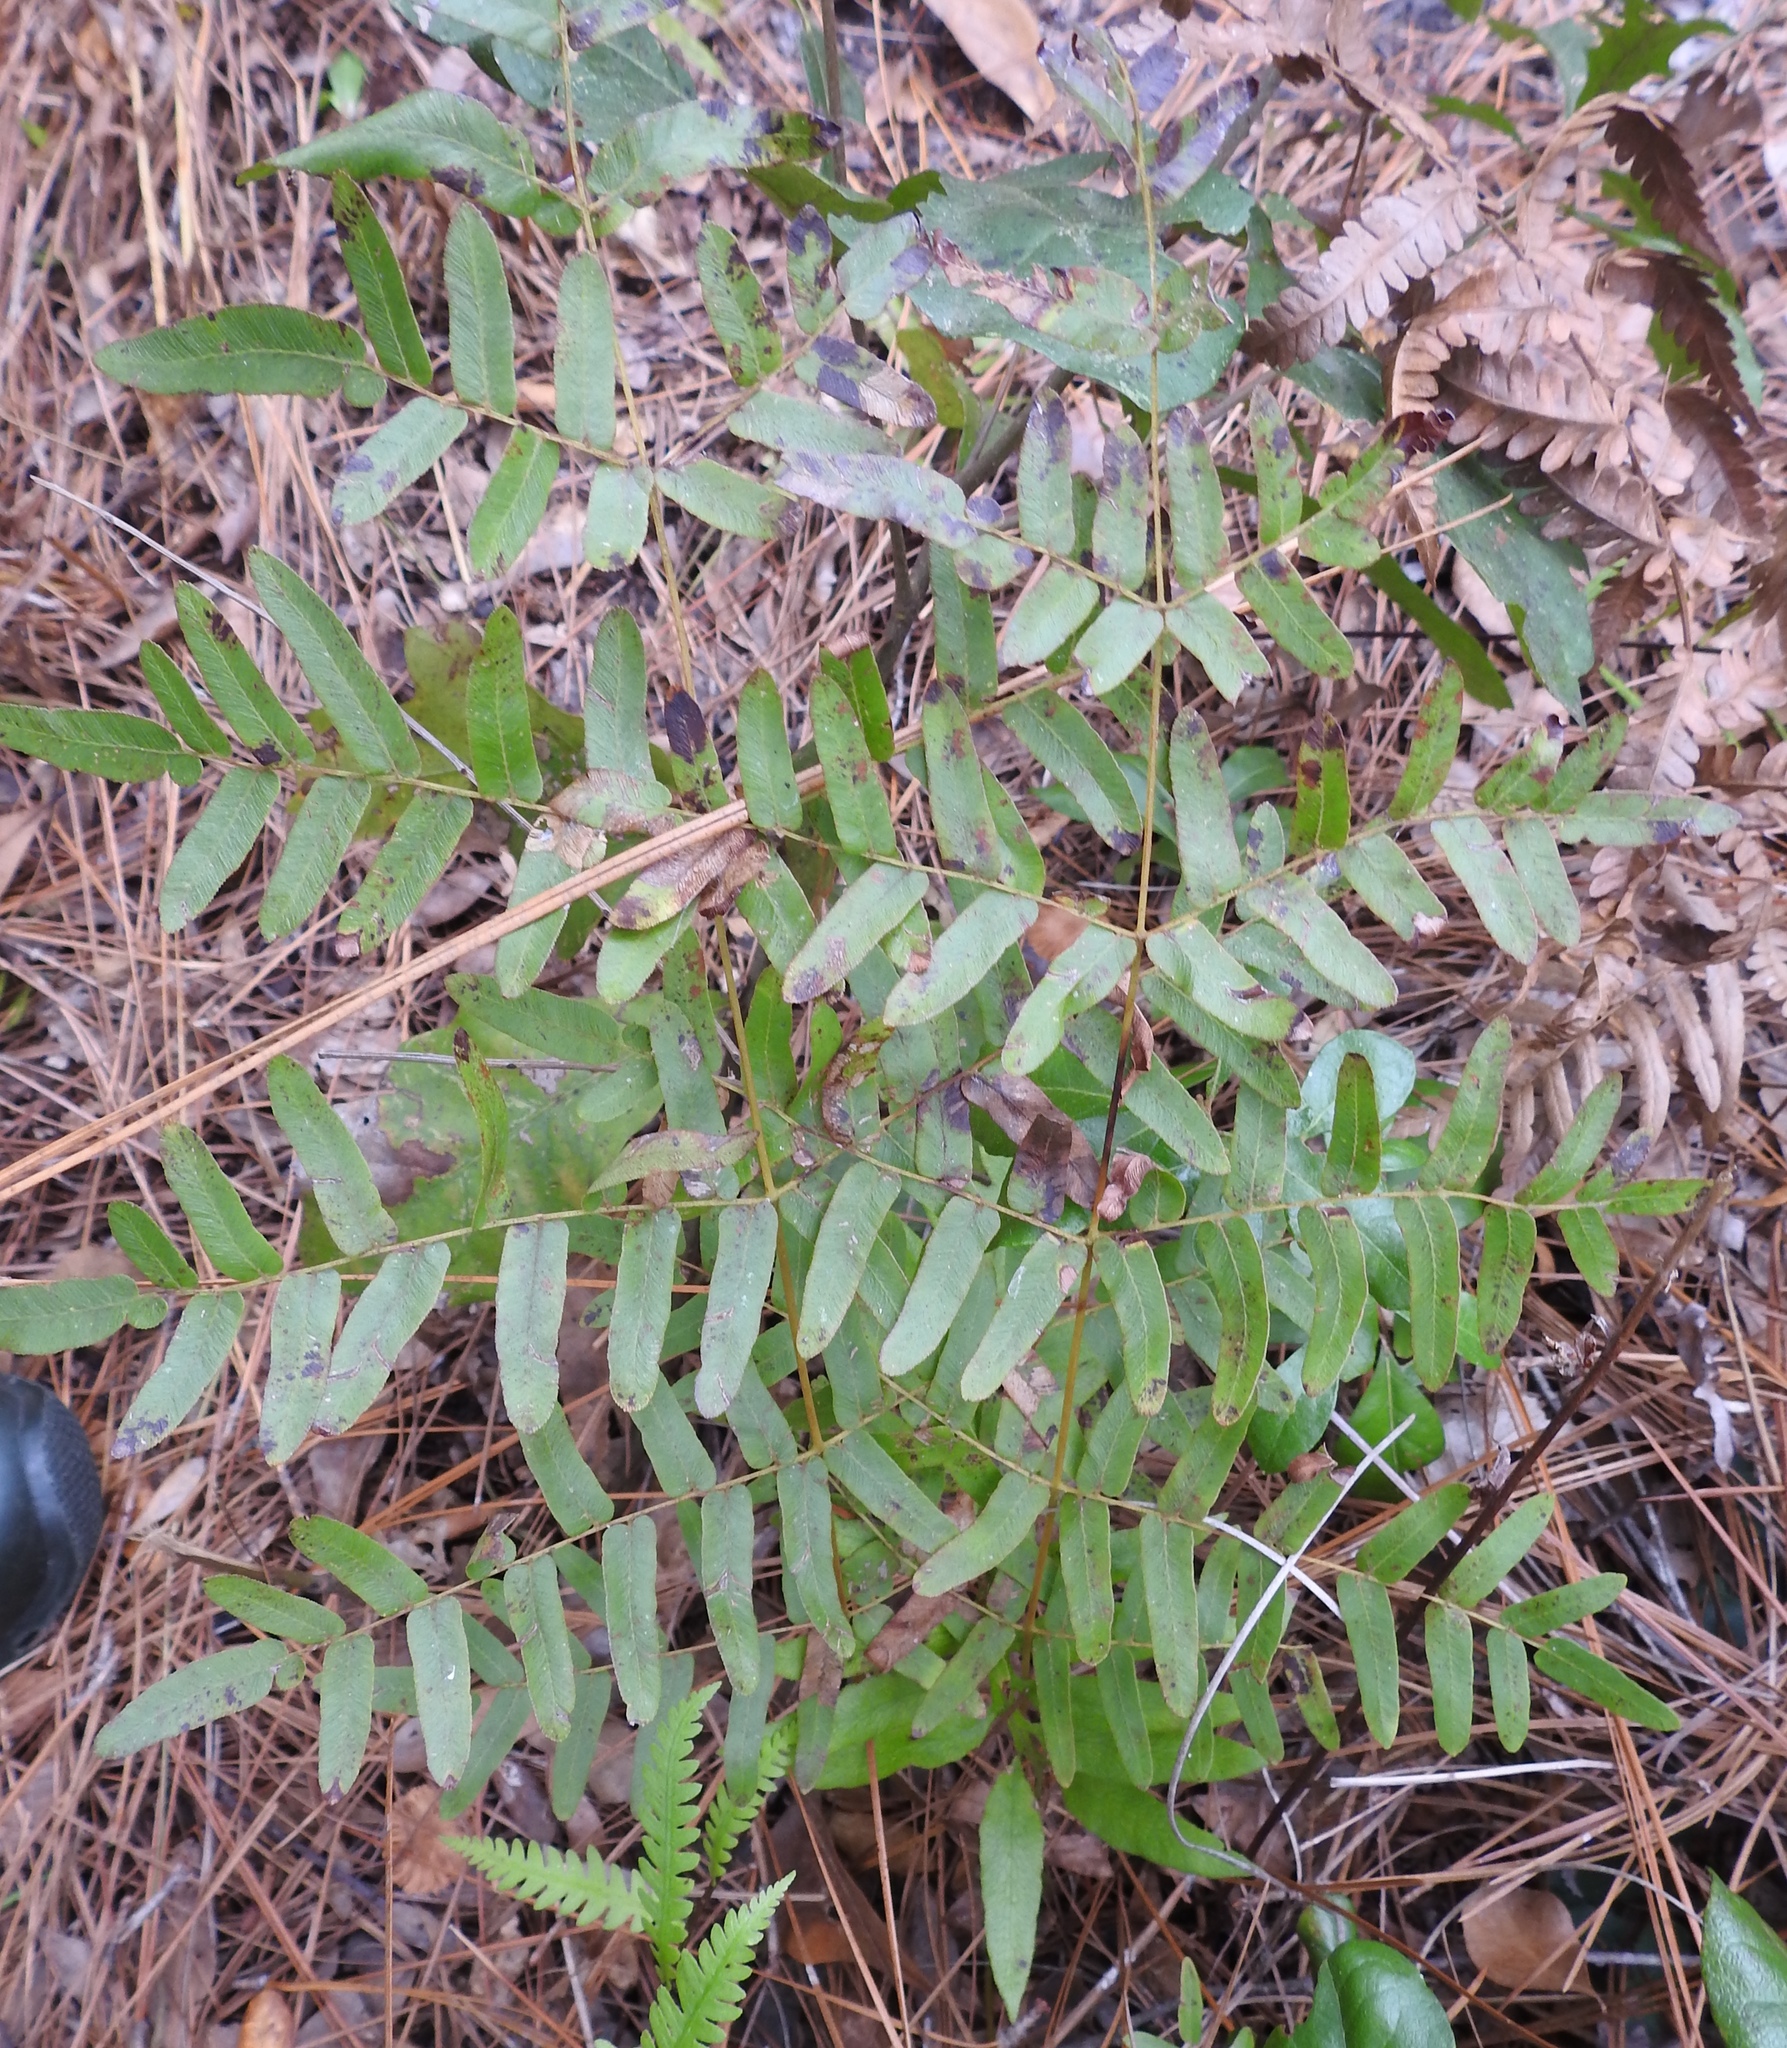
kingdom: Plantae
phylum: Tracheophyta
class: Polypodiopsida
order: Osmundales
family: Osmundaceae
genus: Osmunda
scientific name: Osmunda spectabilis
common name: American royal fern
